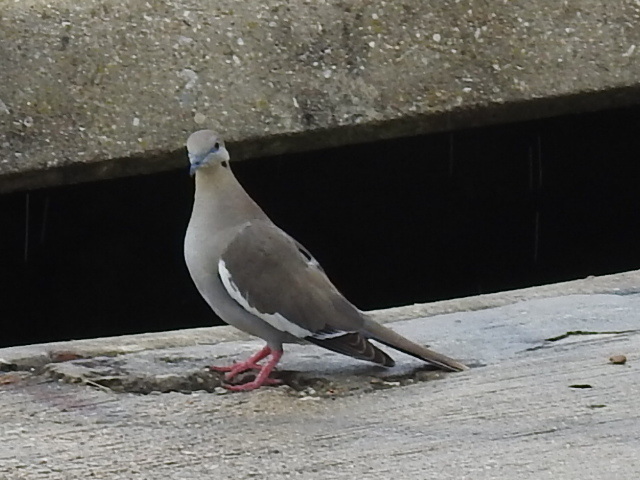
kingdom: Animalia
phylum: Chordata
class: Aves
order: Columbiformes
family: Columbidae
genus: Zenaida
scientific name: Zenaida asiatica
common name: White-winged dove
